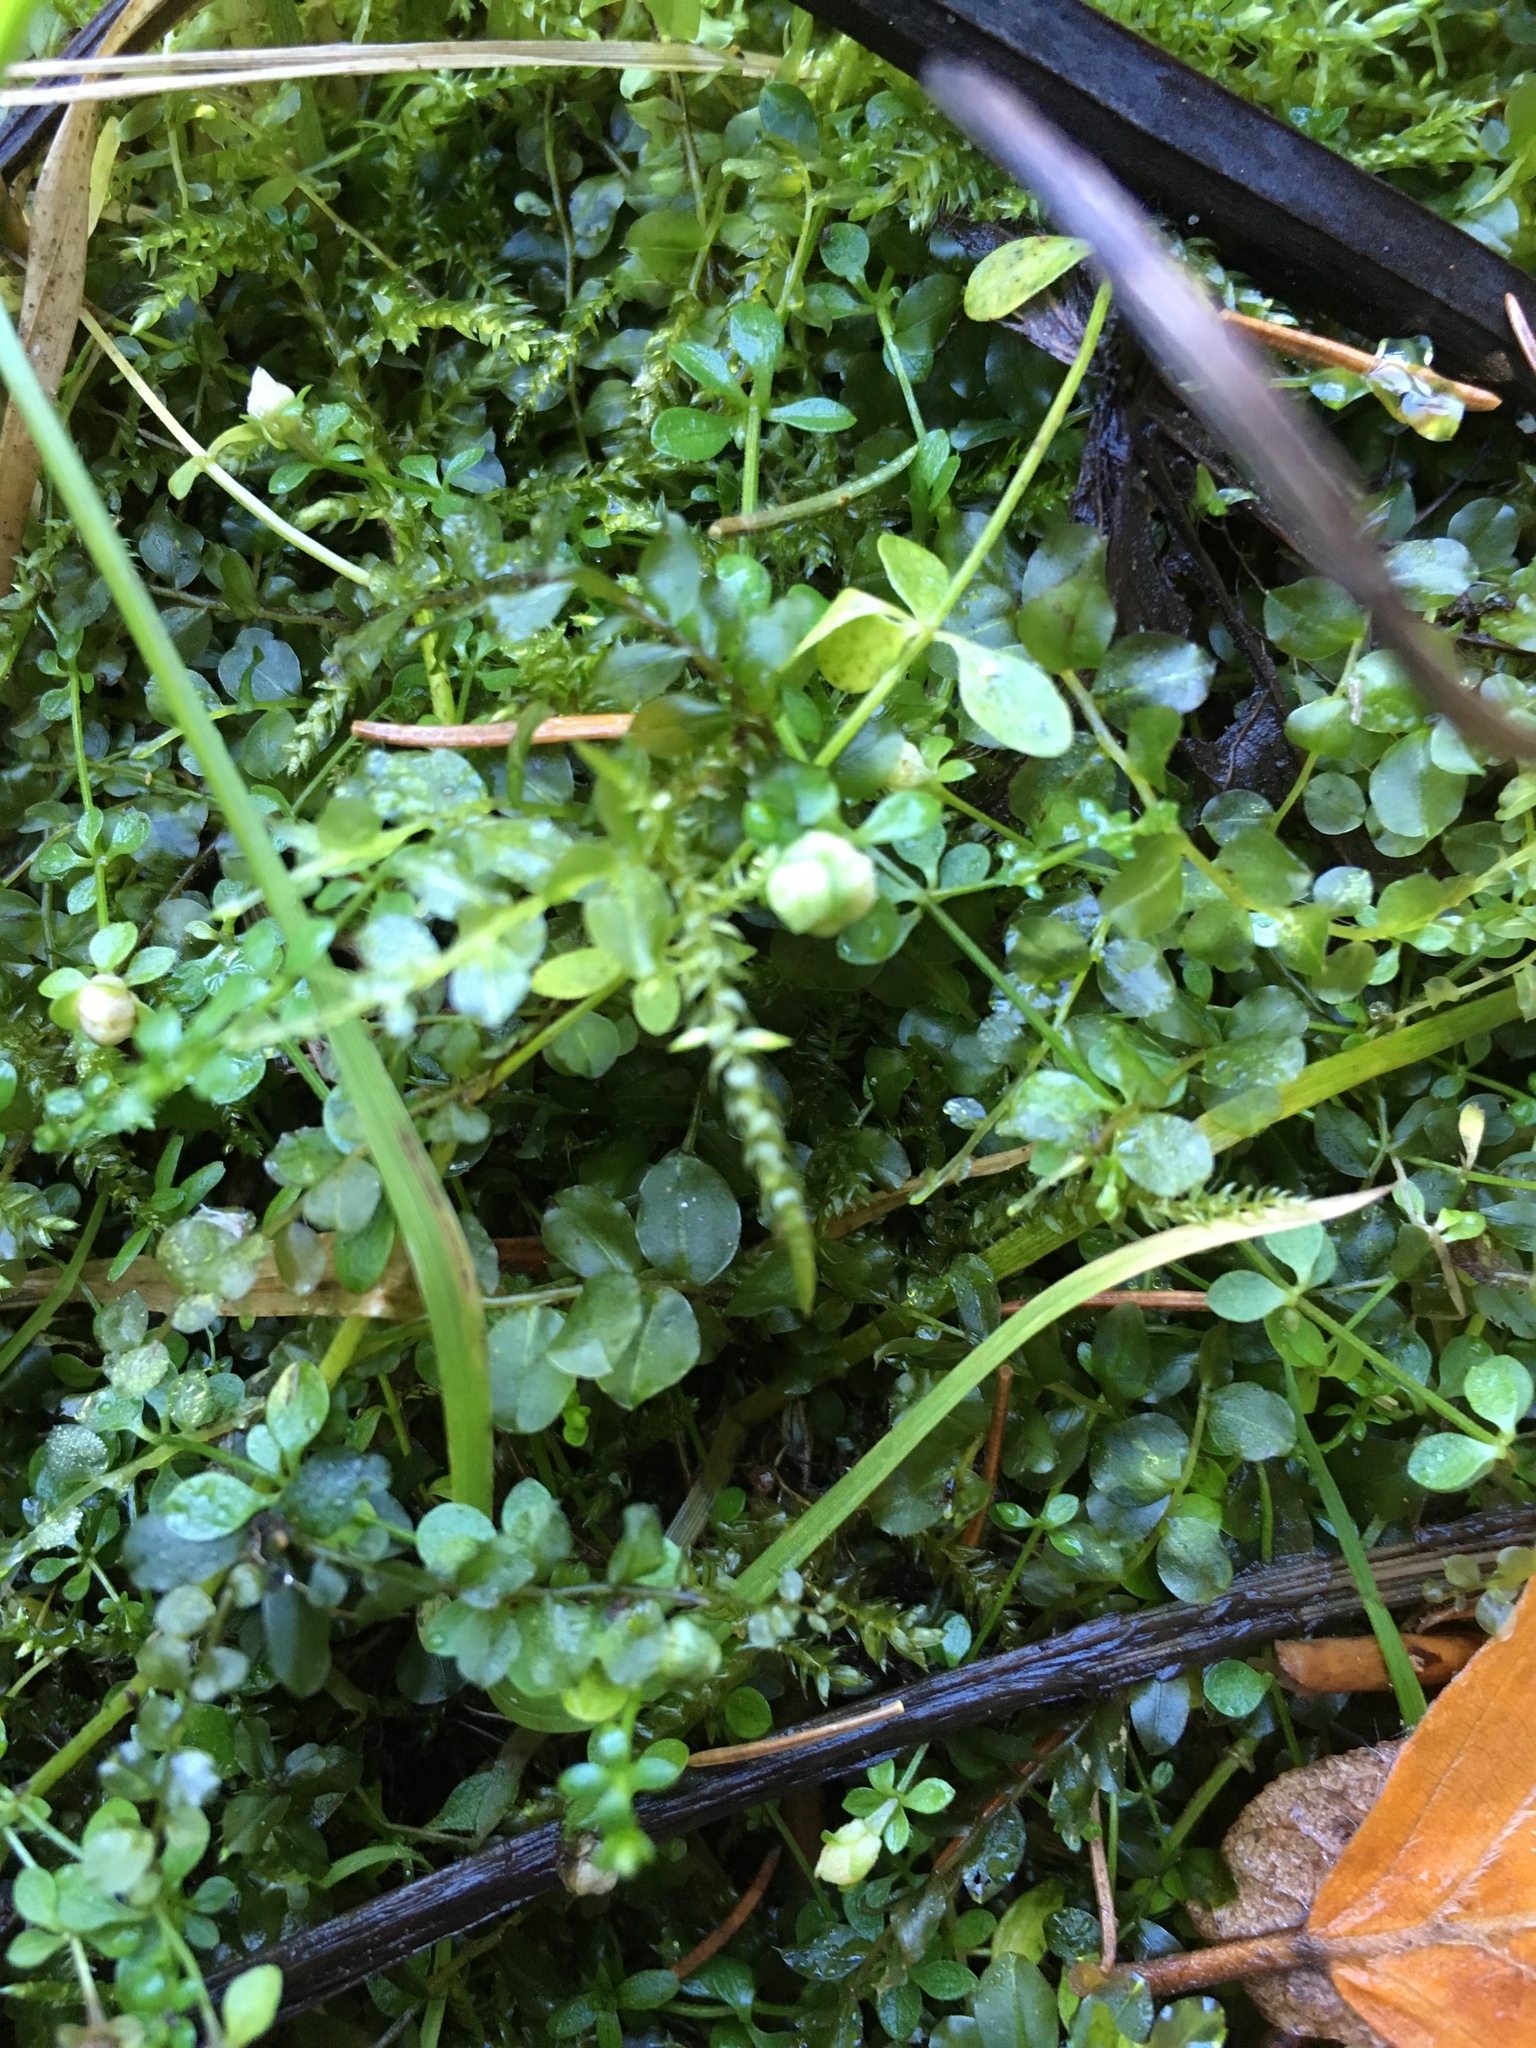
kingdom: Plantae
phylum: Tracheophyta
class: Magnoliopsida
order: Caryophyllales
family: Caryophyllaceae
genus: Stellaria
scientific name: Stellaria media
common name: Common chickweed
